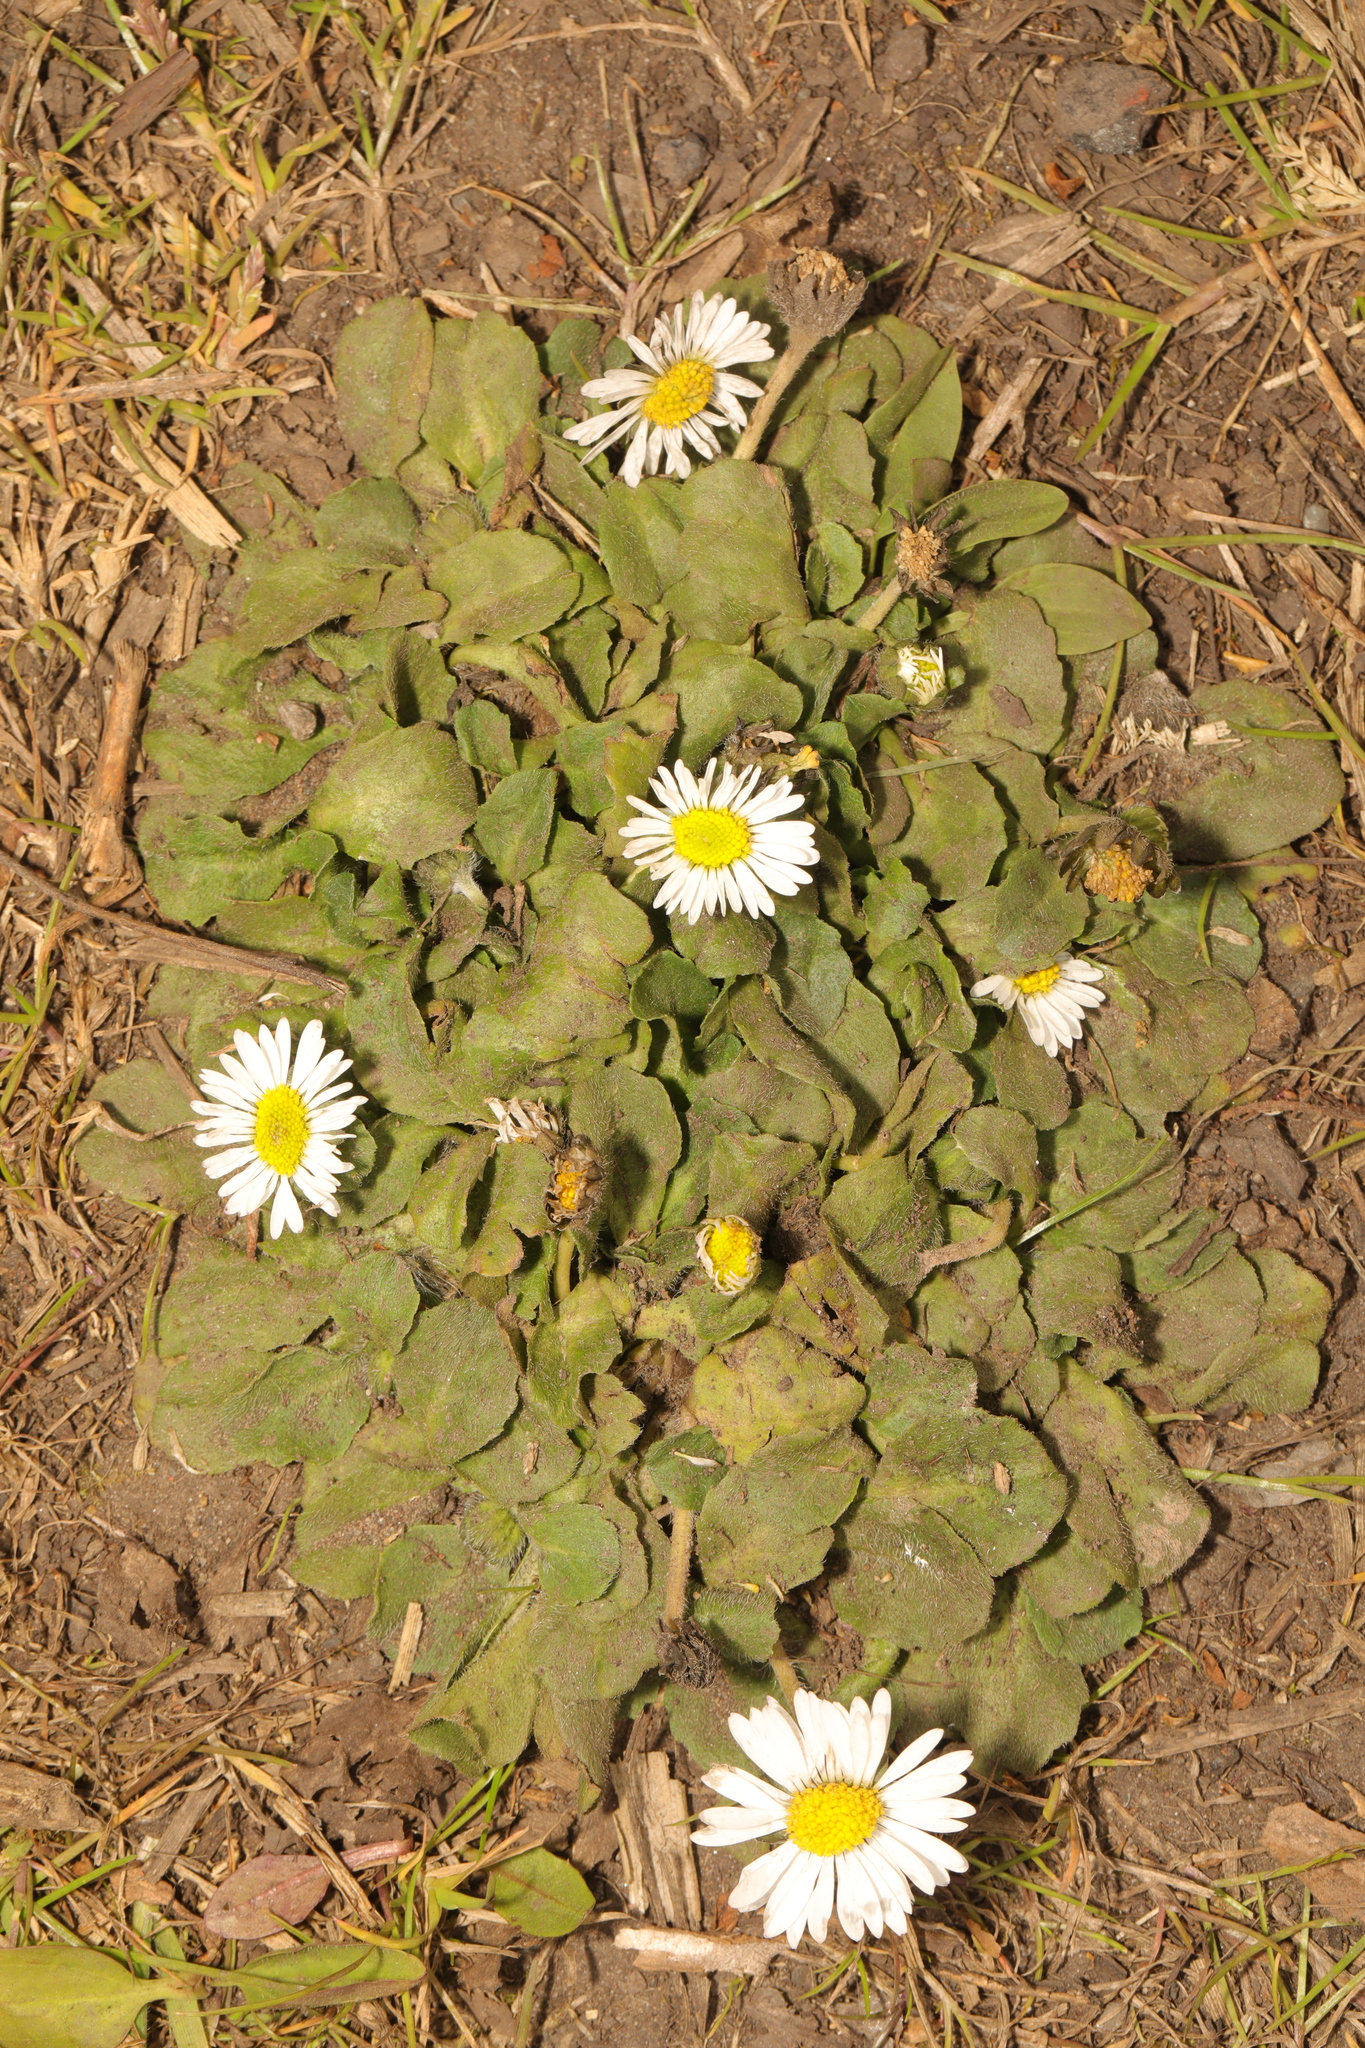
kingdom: Plantae
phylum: Tracheophyta
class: Magnoliopsida
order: Asterales
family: Asteraceae
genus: Bellis
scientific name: Bellis perennis
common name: Lawndaisy
